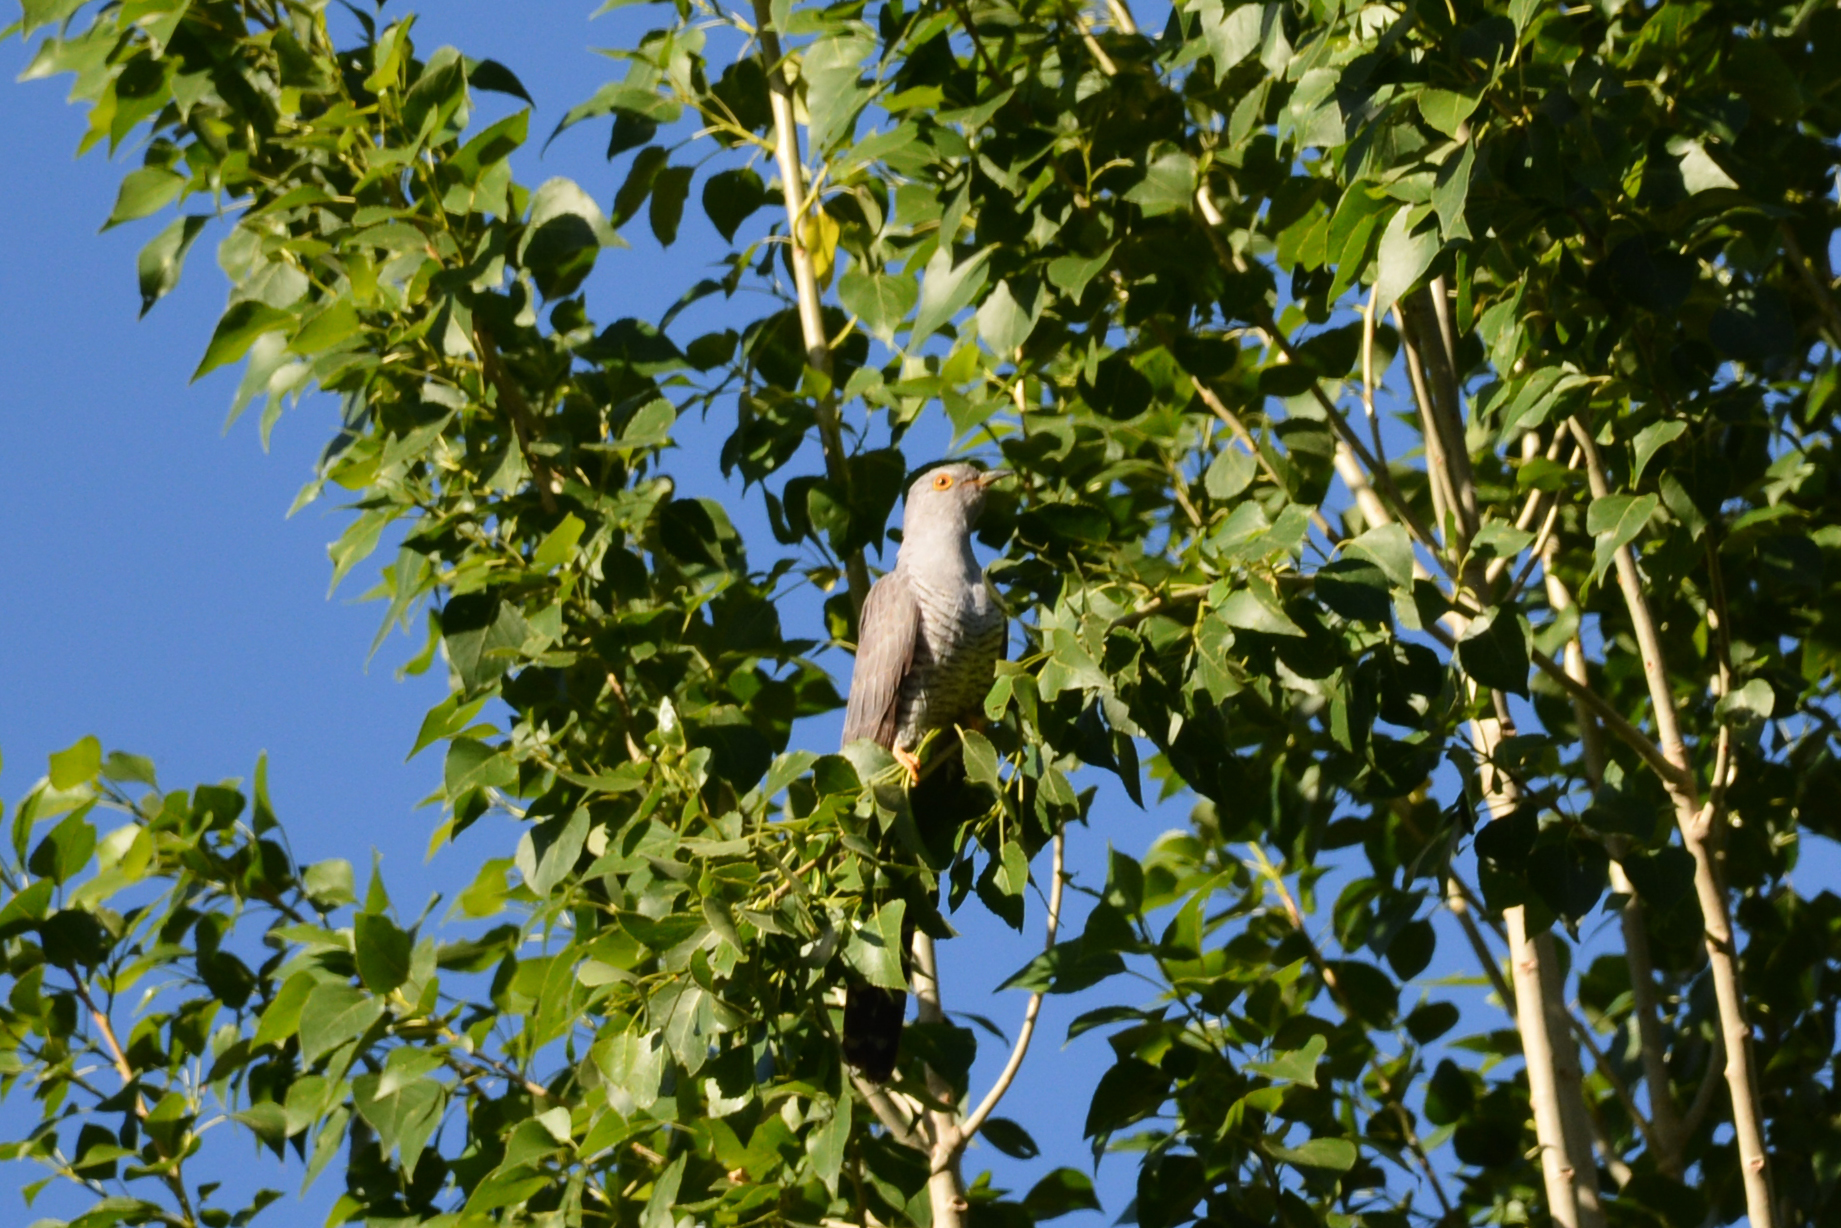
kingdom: Animalia
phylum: Chordata
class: Aves
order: Cuculiformes
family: Cuculidae
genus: Cuculus
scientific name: Cuculus canorus
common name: Common cuckoo
